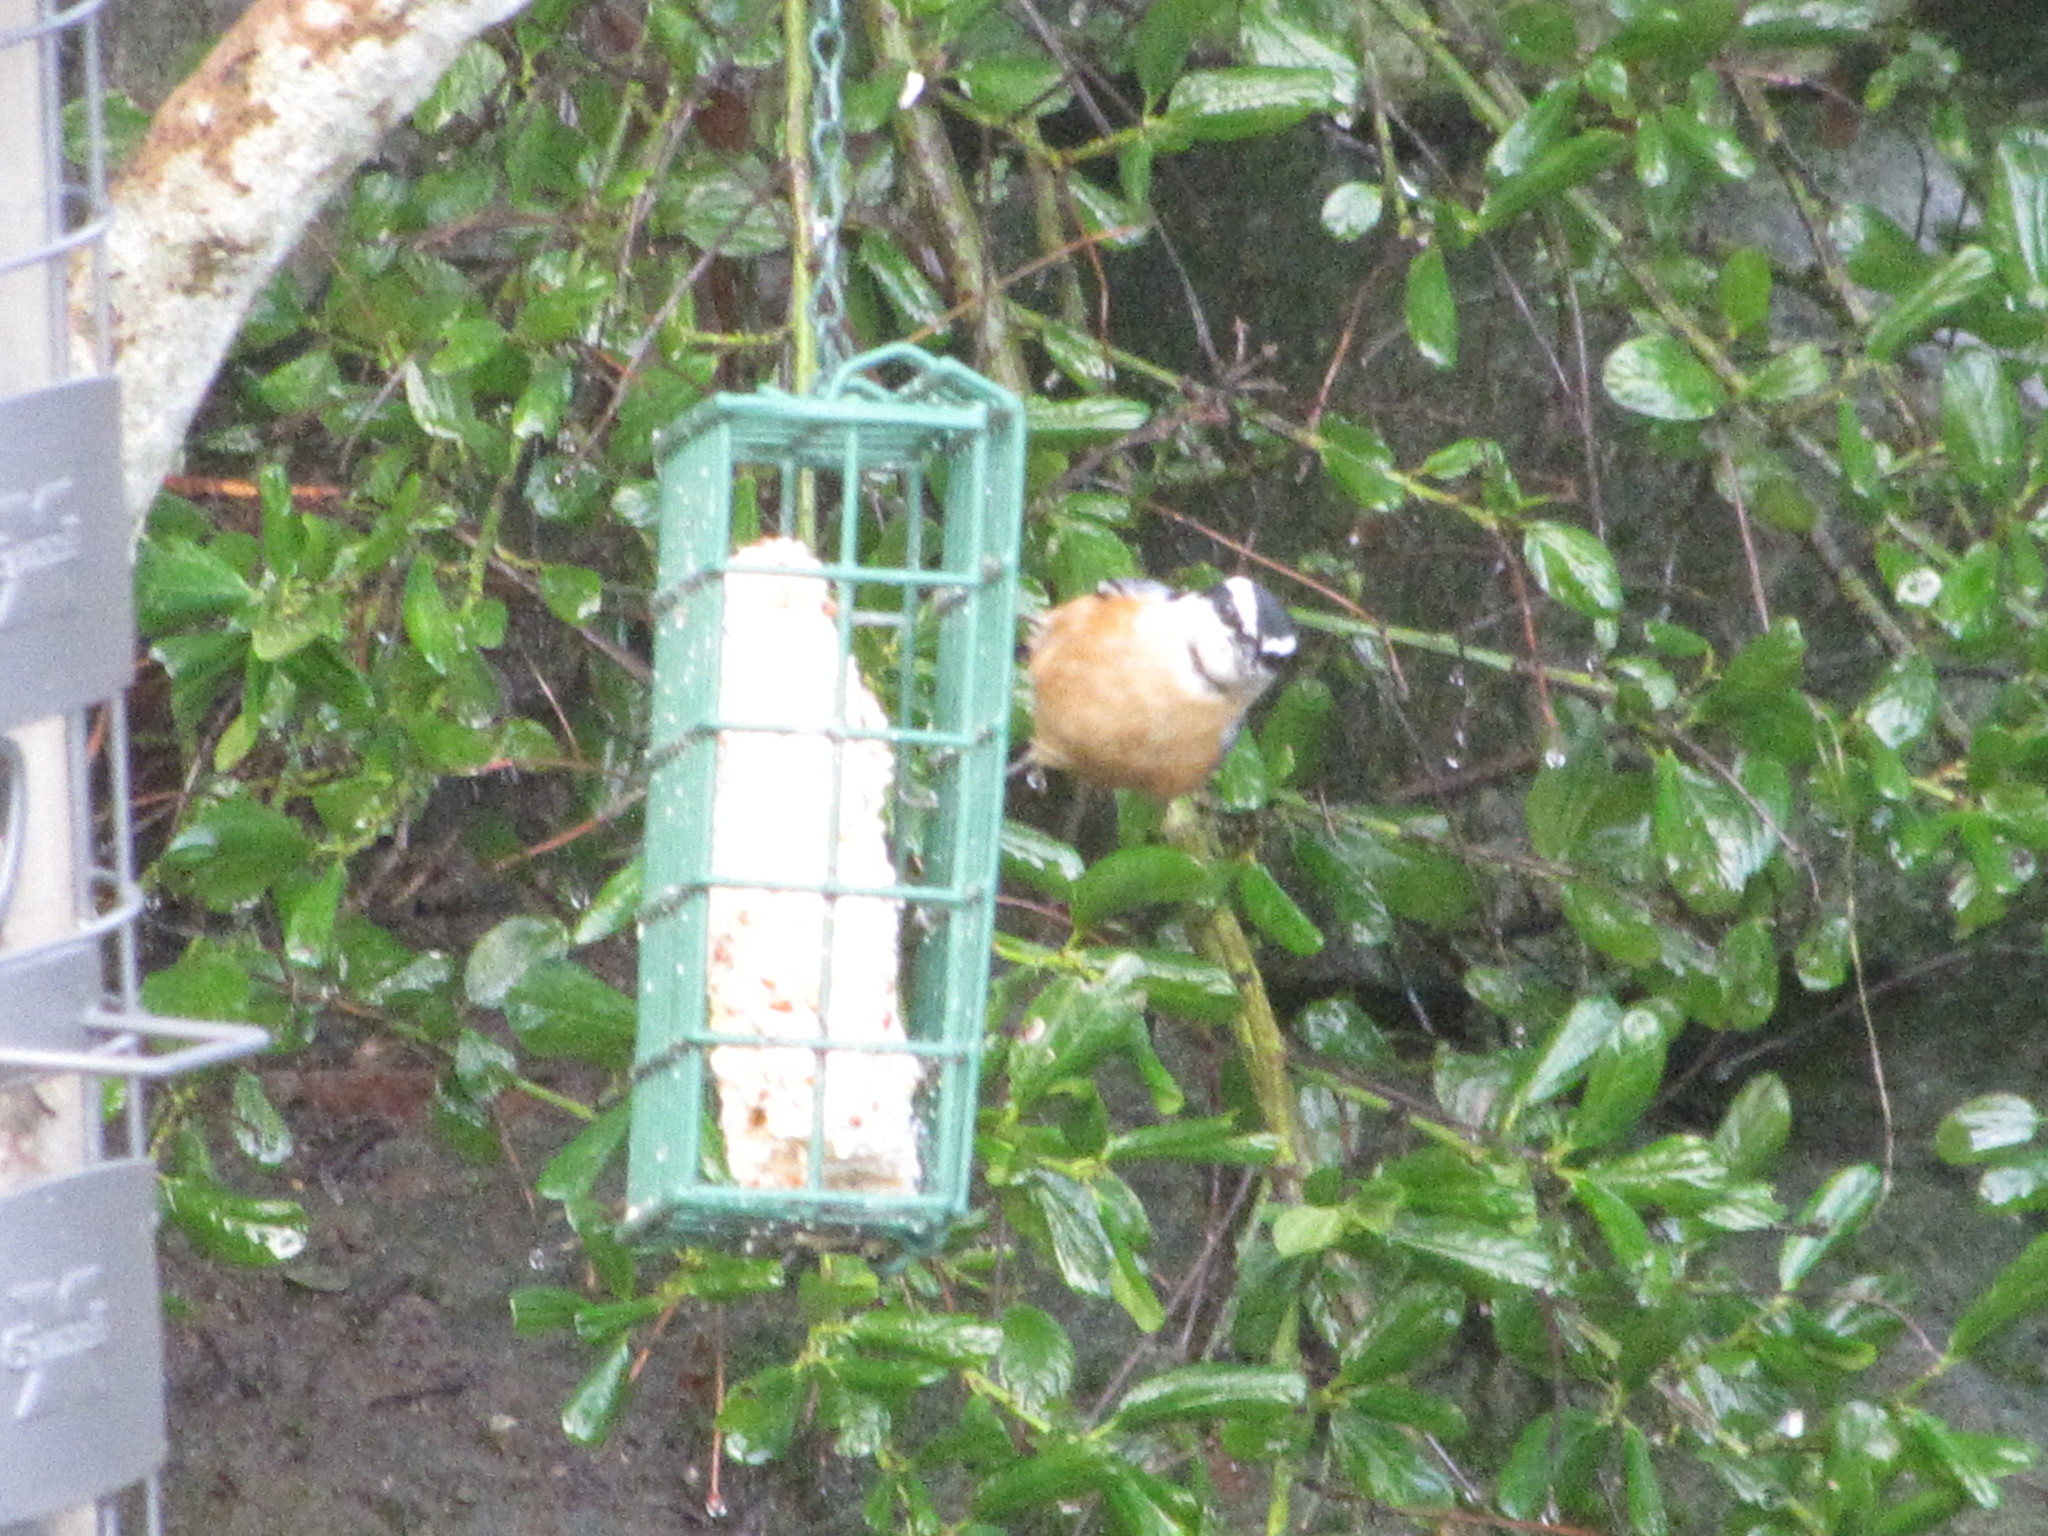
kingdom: Animalia
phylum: Chordata
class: Aves
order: Passeriformes
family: Sittidae
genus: Sitta
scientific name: Sitta canadensis
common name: Red-breasted nuthatch
